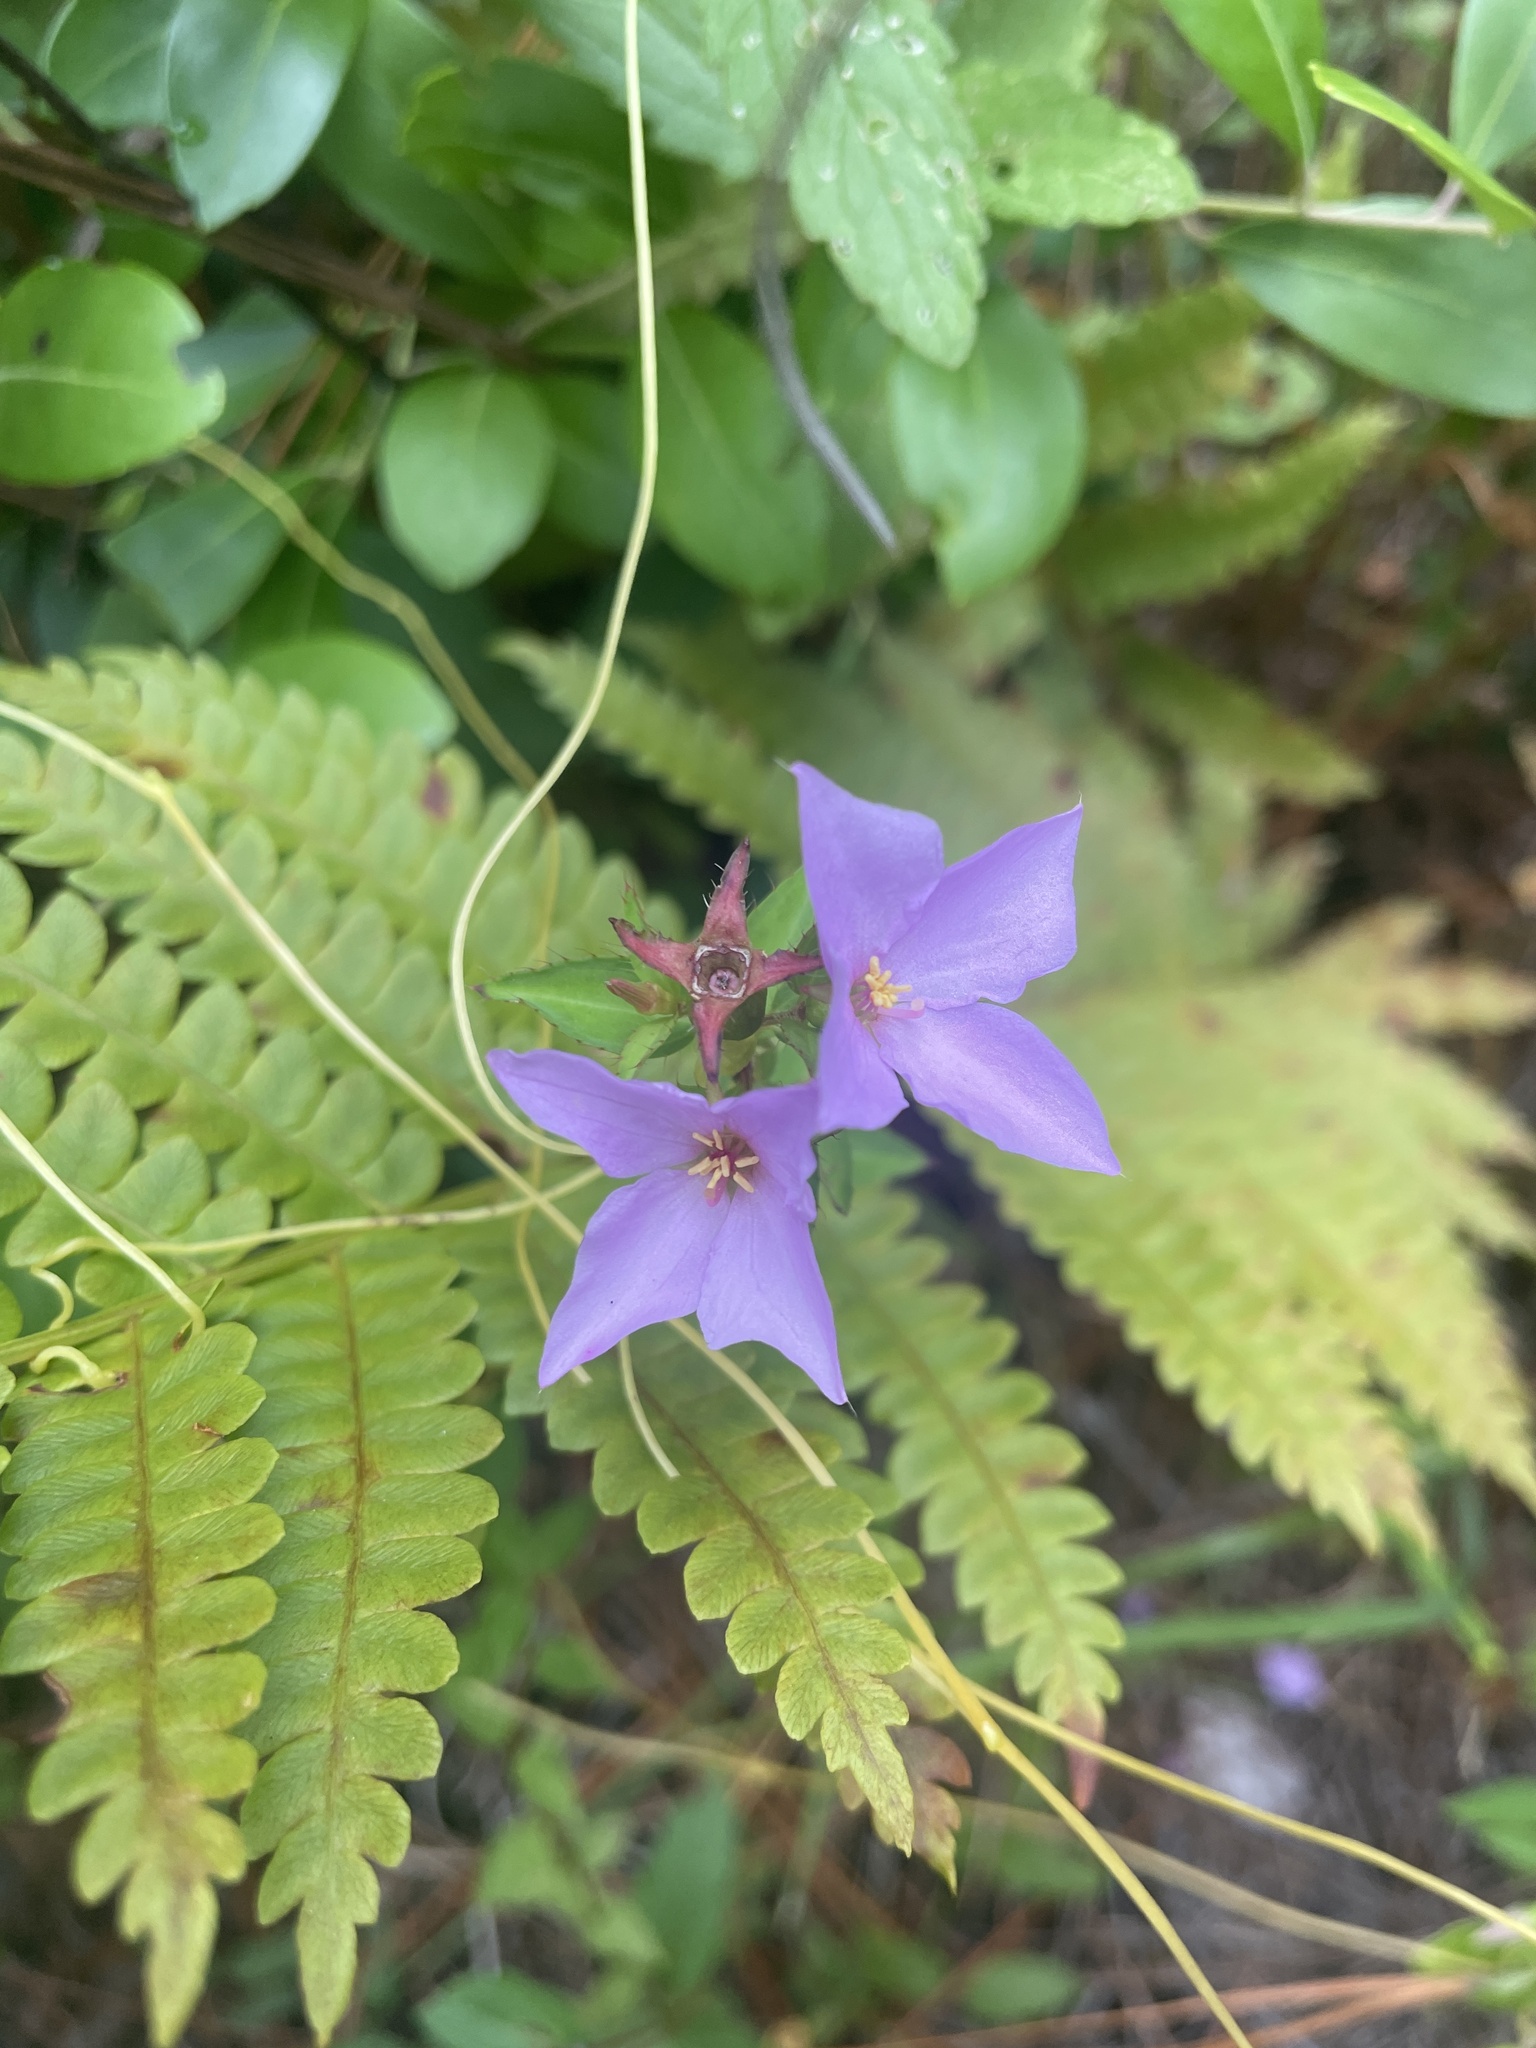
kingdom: Plantae
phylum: Tracheophyta
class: Magnoliopsida
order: Myrtales
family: Melastomataceae
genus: Rhexia
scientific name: Rhexia petiolata
